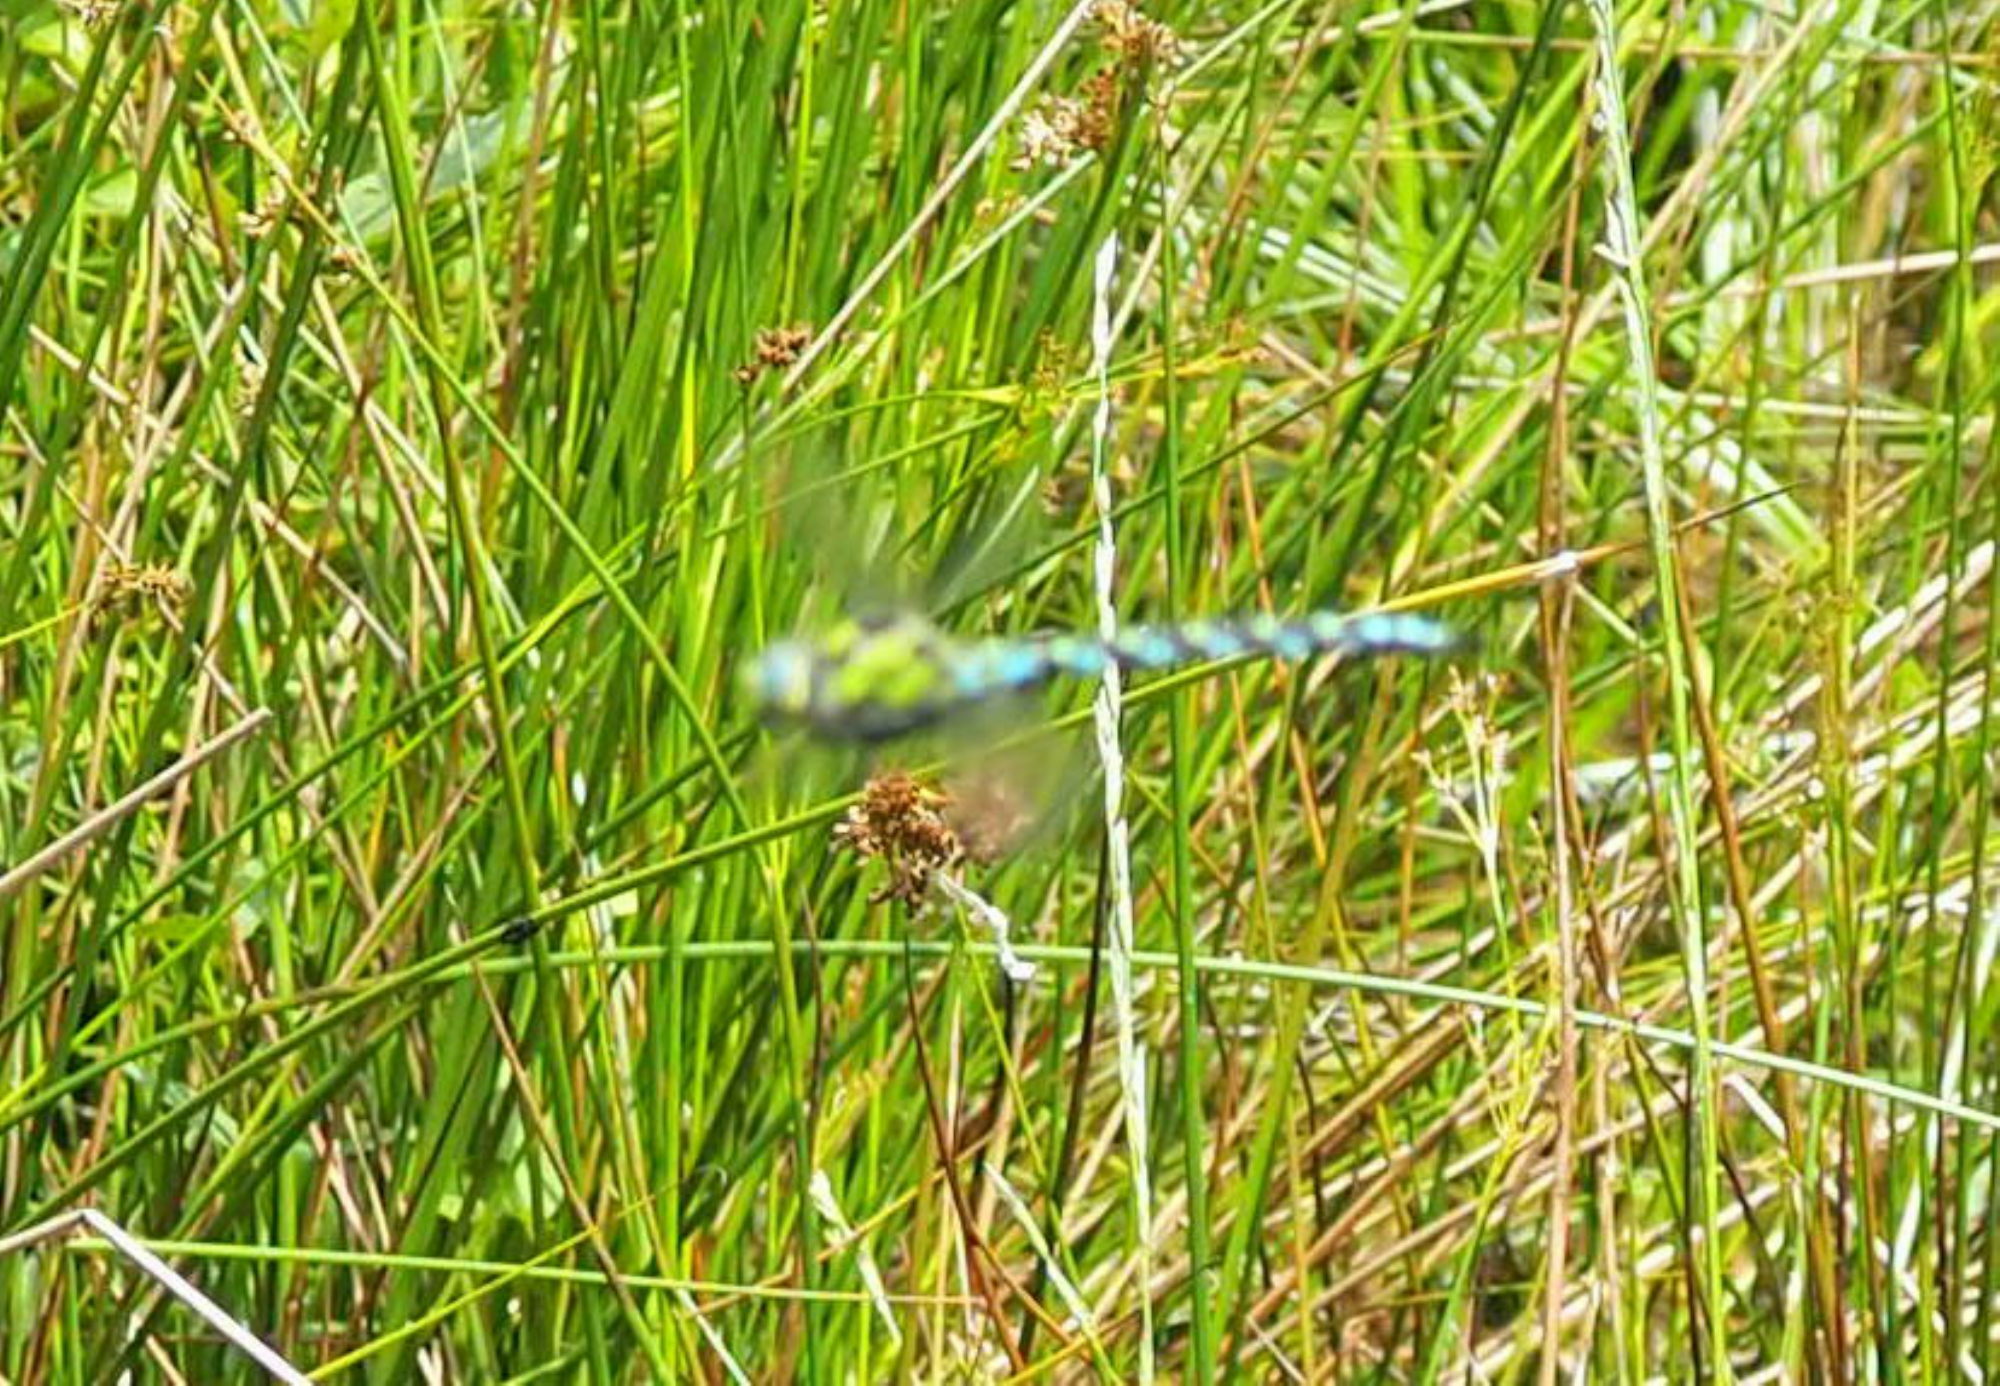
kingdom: Animalia
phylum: Arthropoda
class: Insecta
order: Odonata
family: Aeshnidae
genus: Aeshna
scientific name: Aeshna cyanea
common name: Southern hawker
